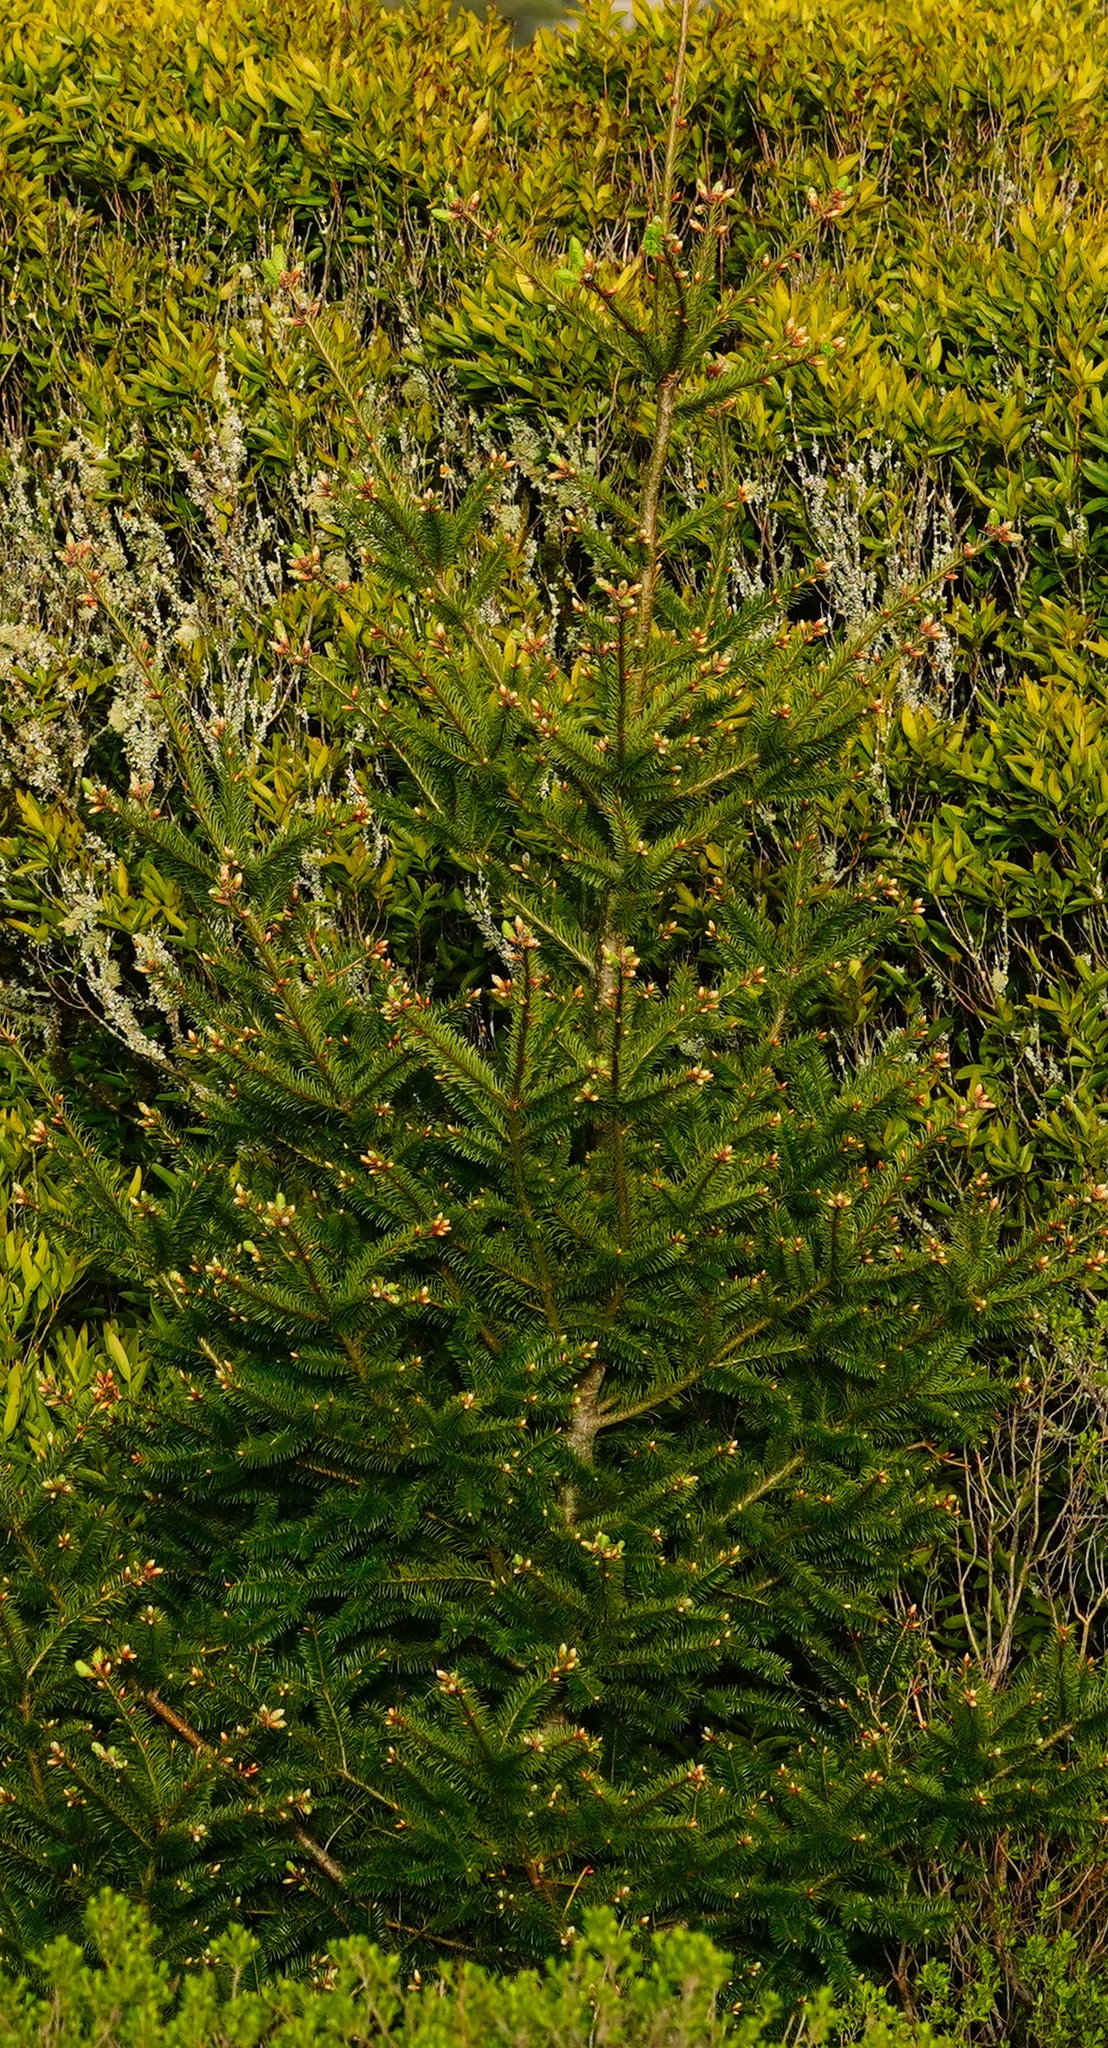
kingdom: Plantae
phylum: Tracheophyta
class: Pinopsida
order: Pinales
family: Pinaceae
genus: Pseudotsuga
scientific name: Pseudotsuga menziesii
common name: Douglas fir
